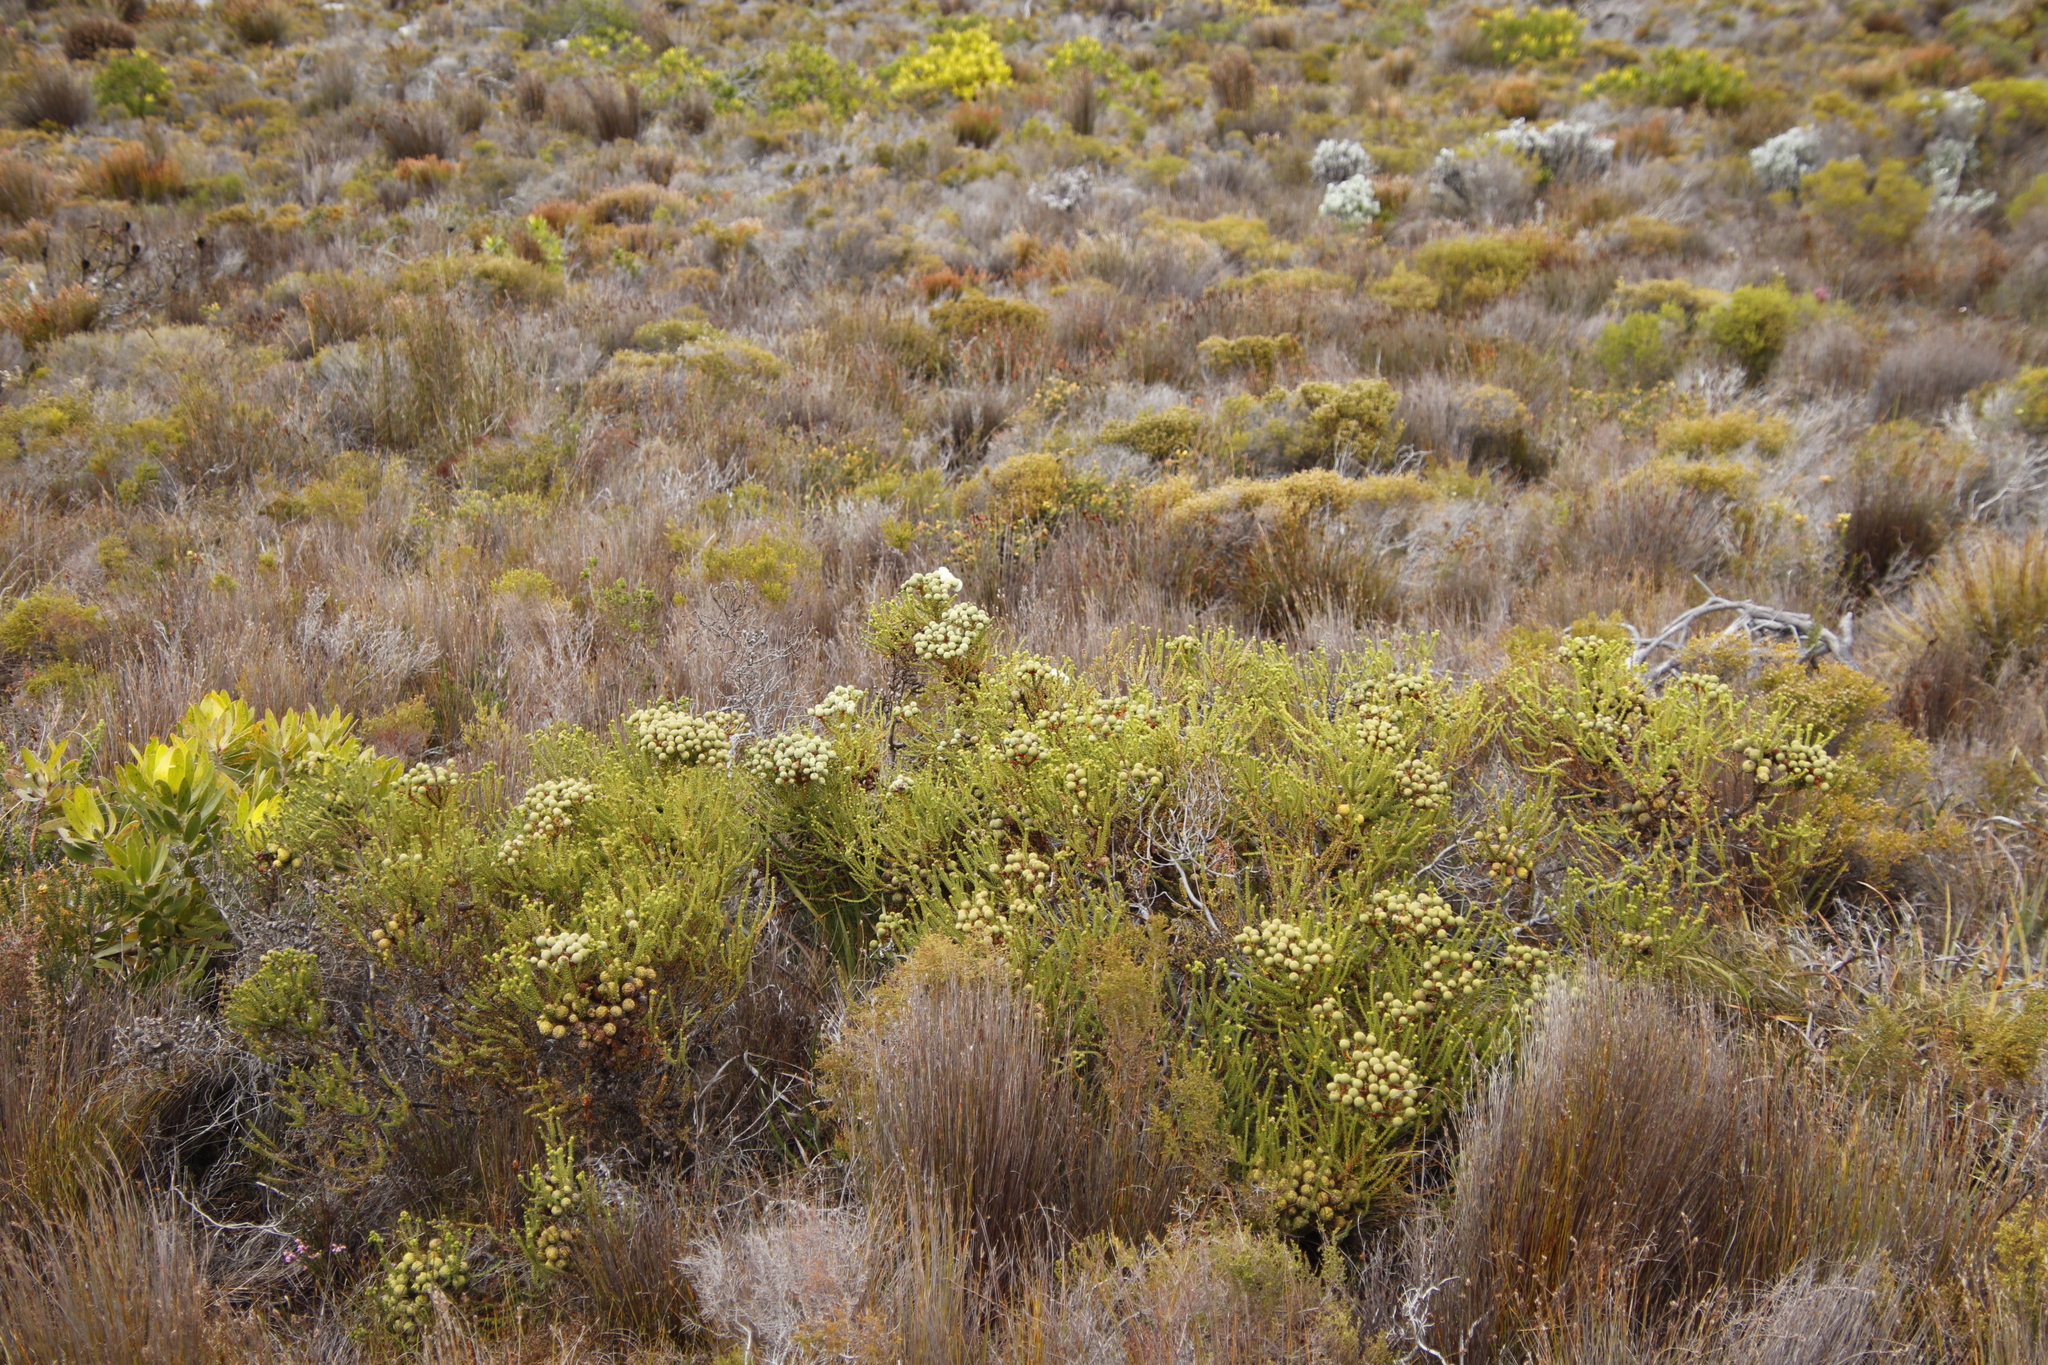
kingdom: Plantae
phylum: Tracheophyta
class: Magnoliopsida
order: Bruniales
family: Bruniaceae
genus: Berzelia
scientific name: Berzelia abrotanoides
